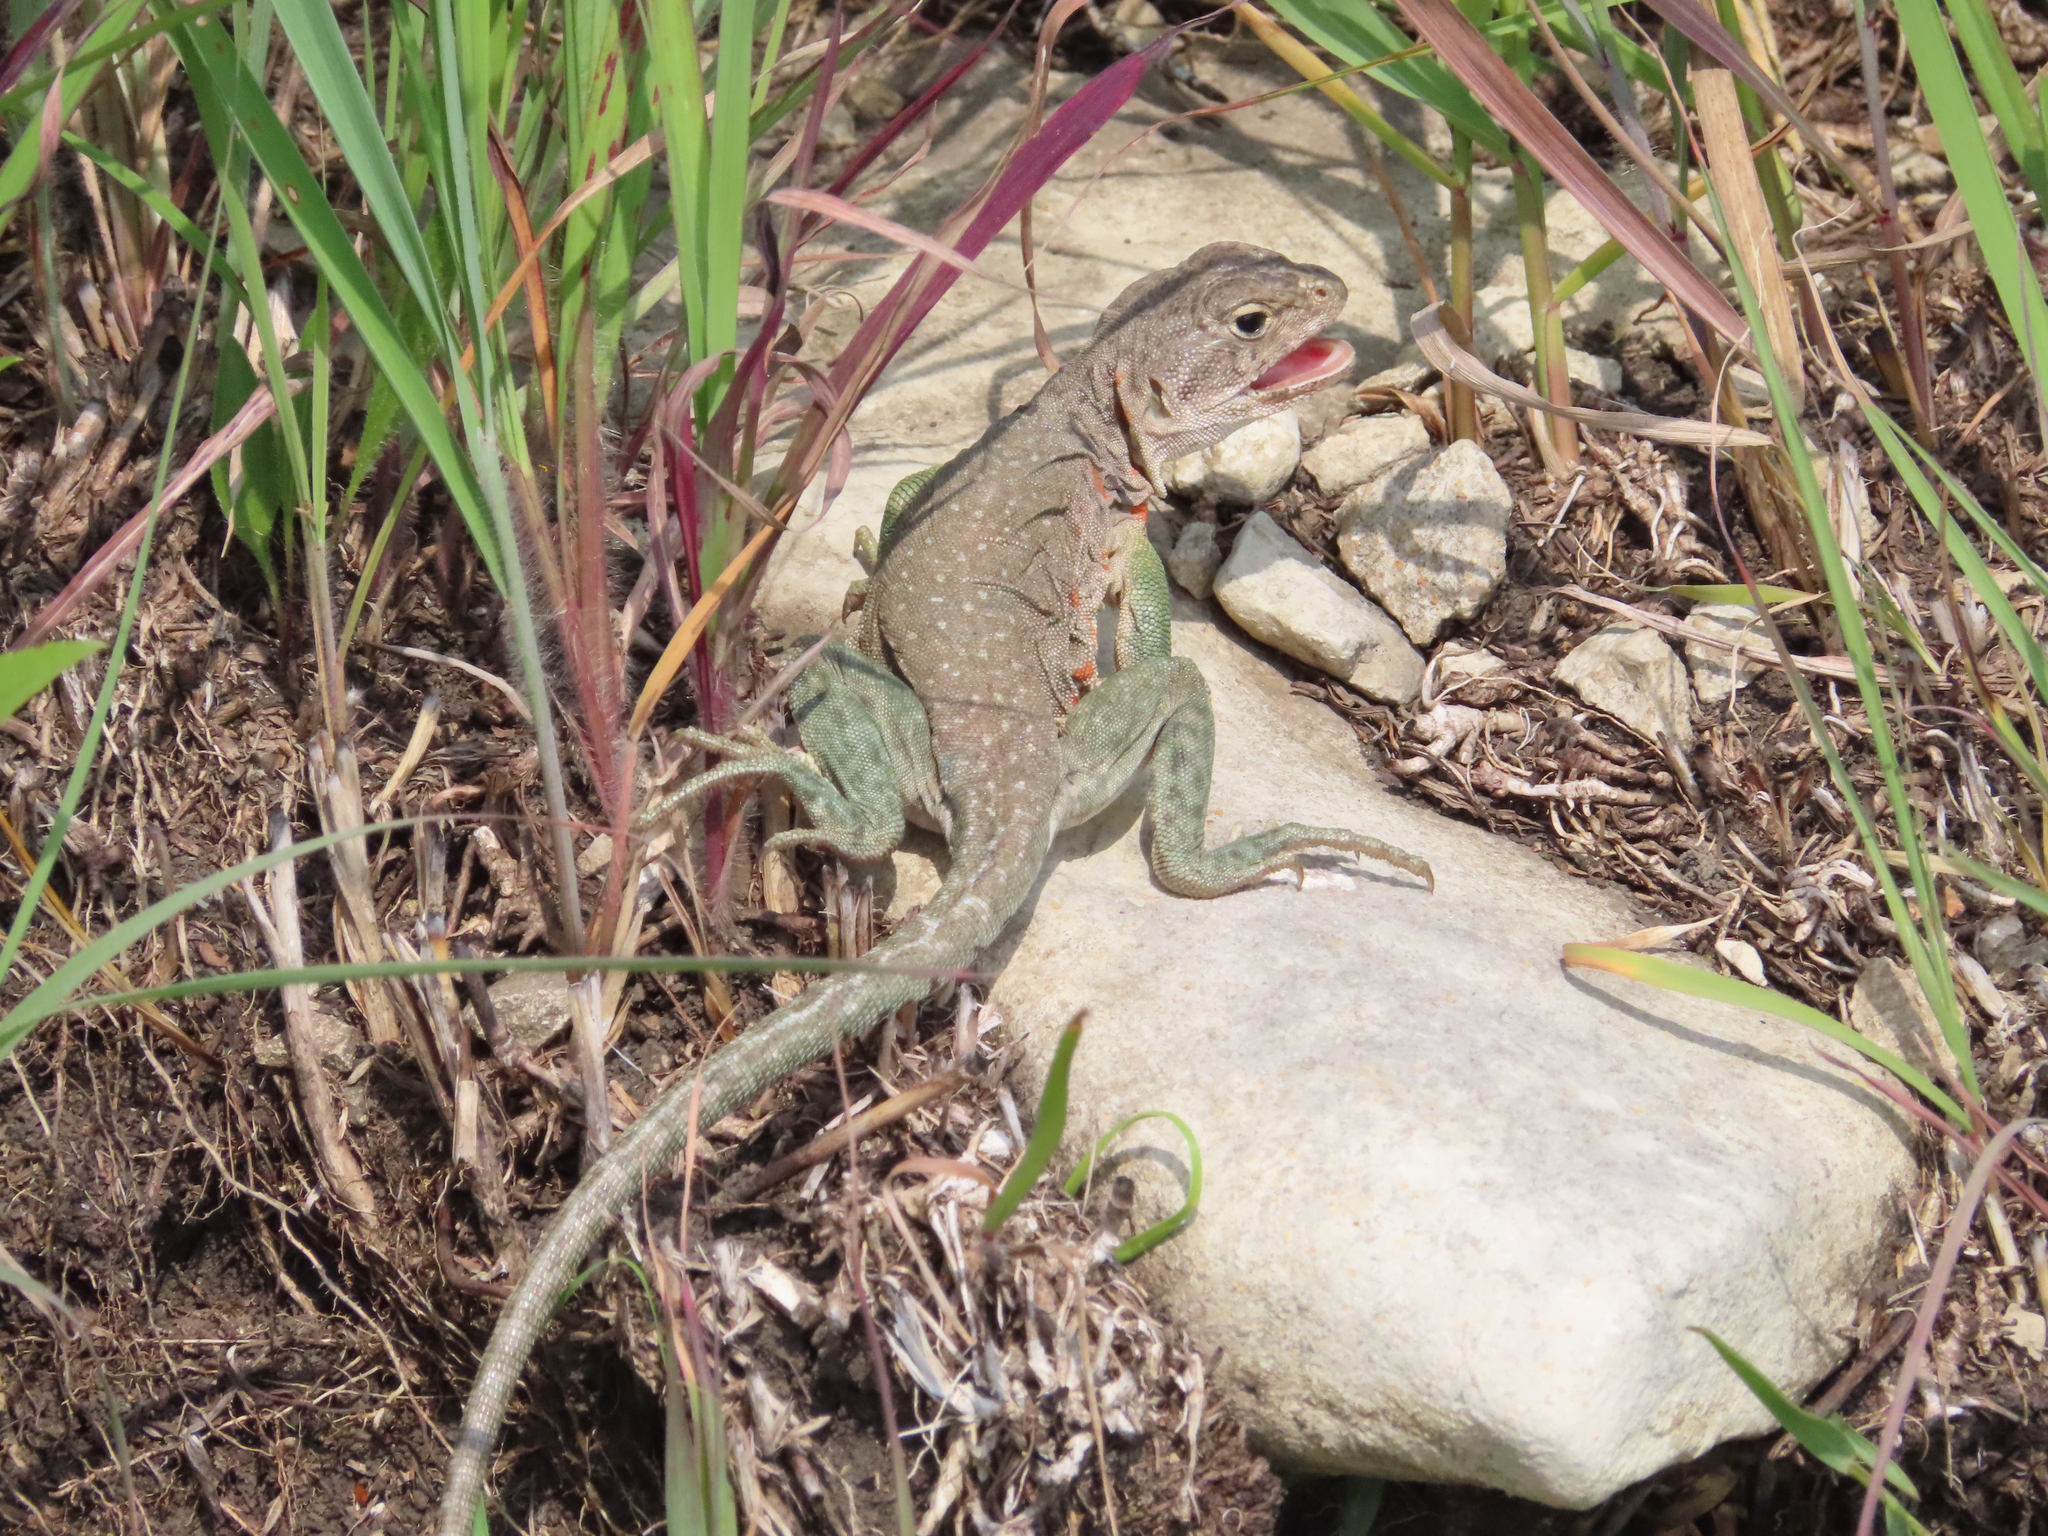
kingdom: Animalia
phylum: Chordata
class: Squamata
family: Crotaphytidae
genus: Crotaphytus
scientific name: Crotaphytus collaris
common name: Collared lizard
